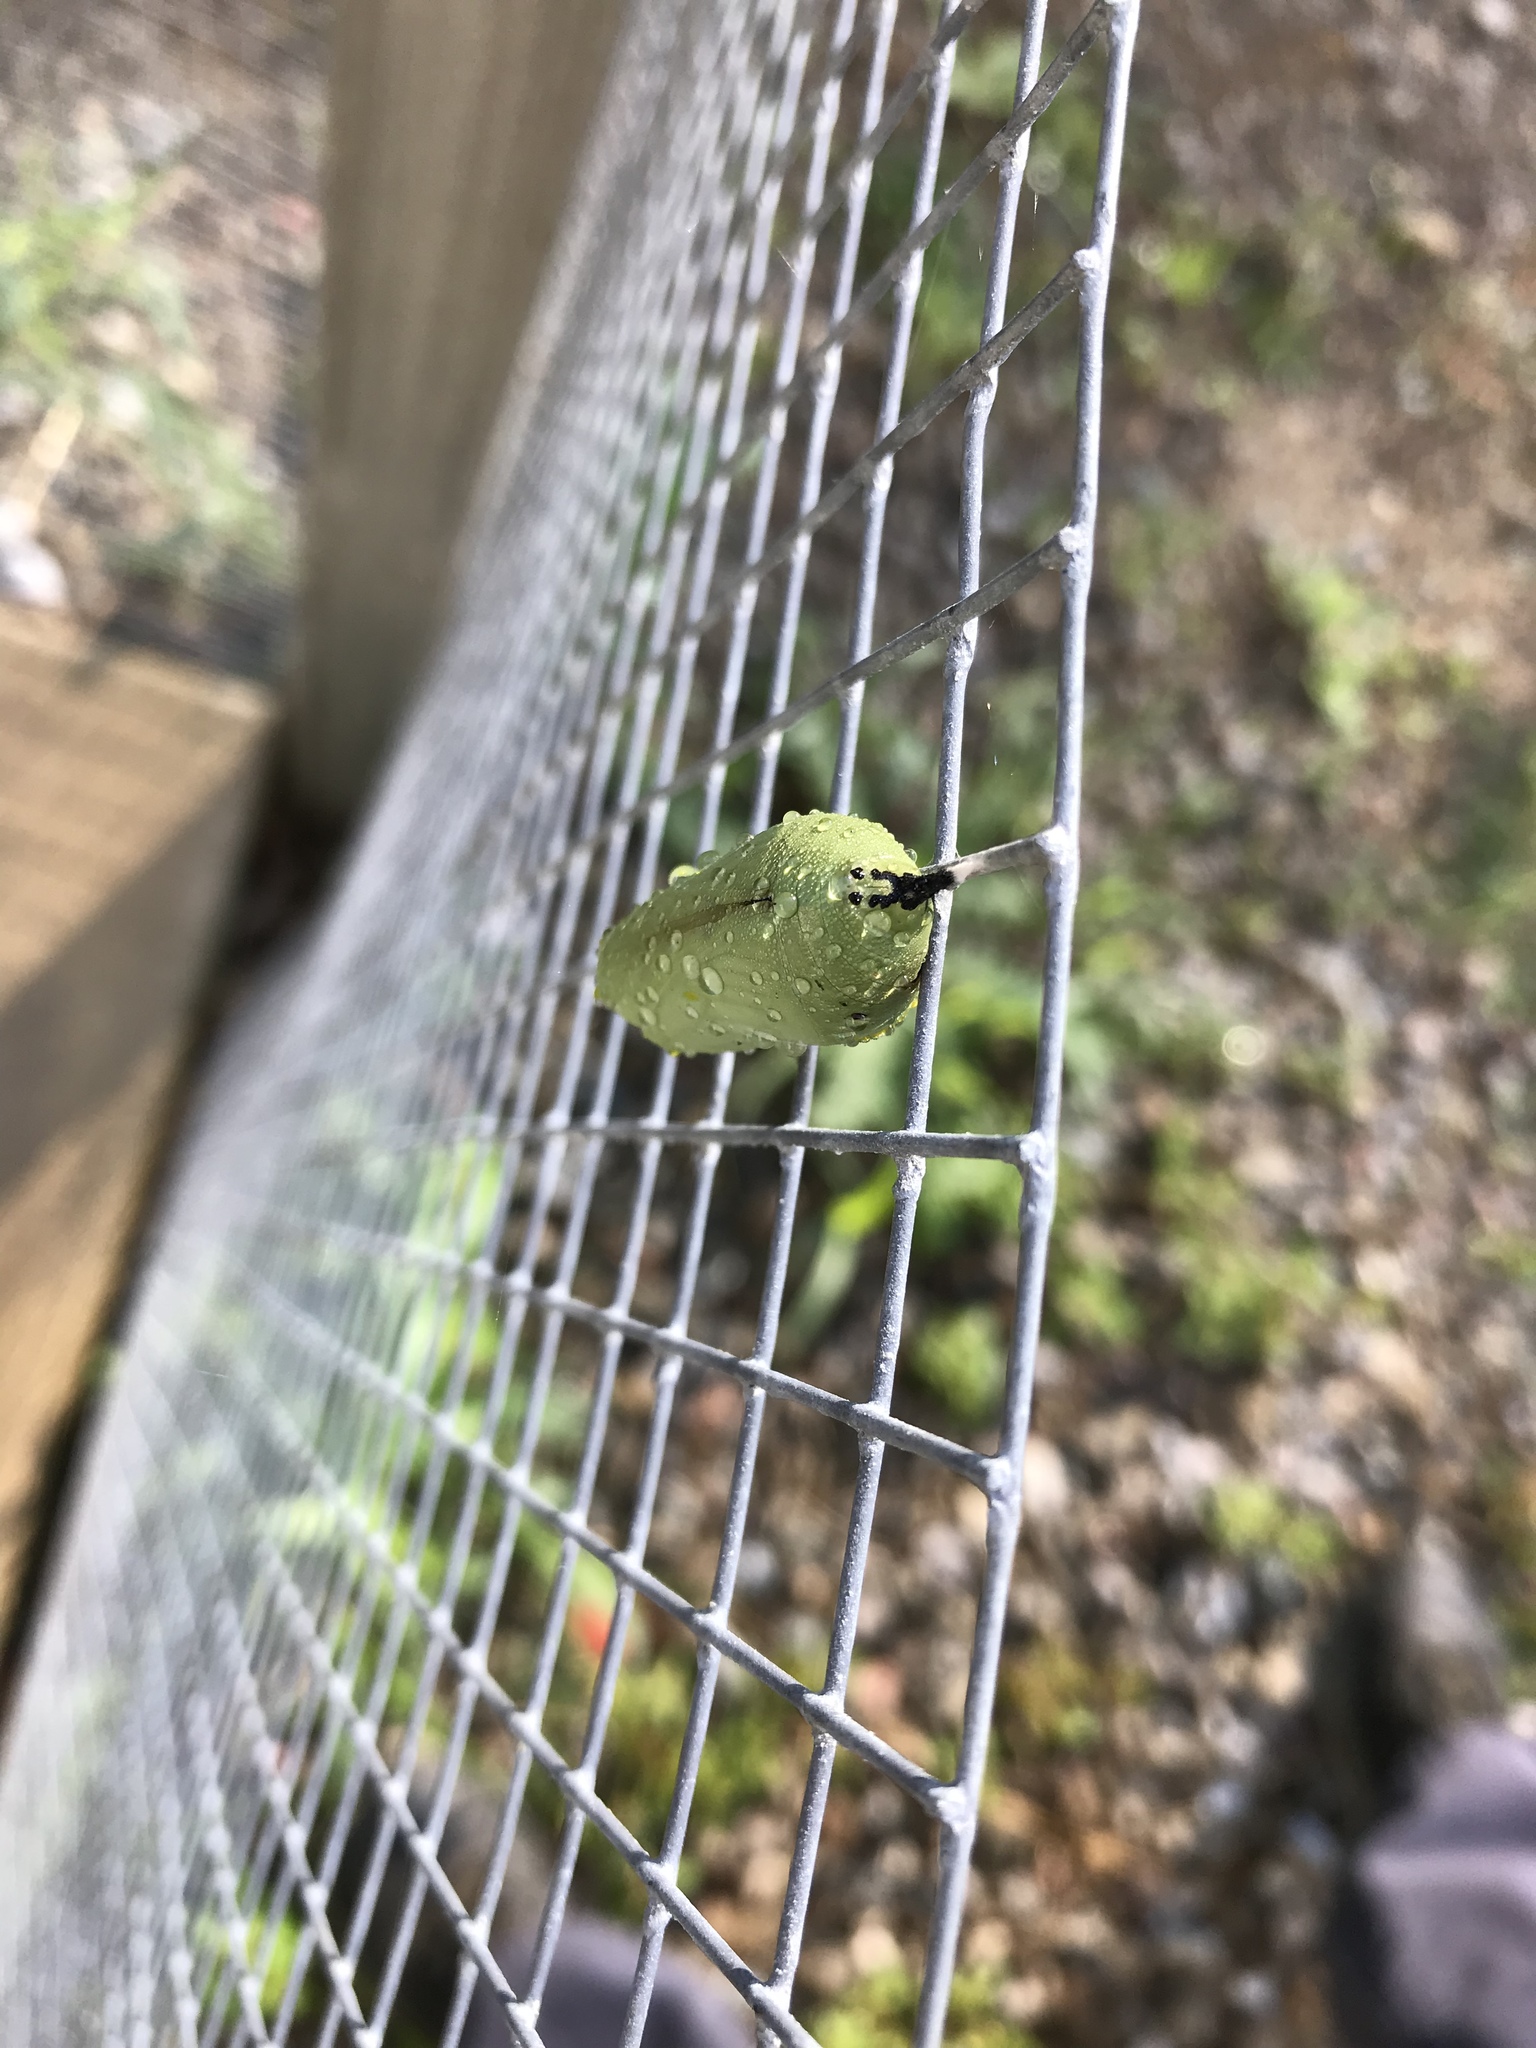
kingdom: Animalia
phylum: Arthropoda
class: Insecta
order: Lepidoptera
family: Nymphalidae
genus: Danaus
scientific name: Danaus plexippus
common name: Monarch
